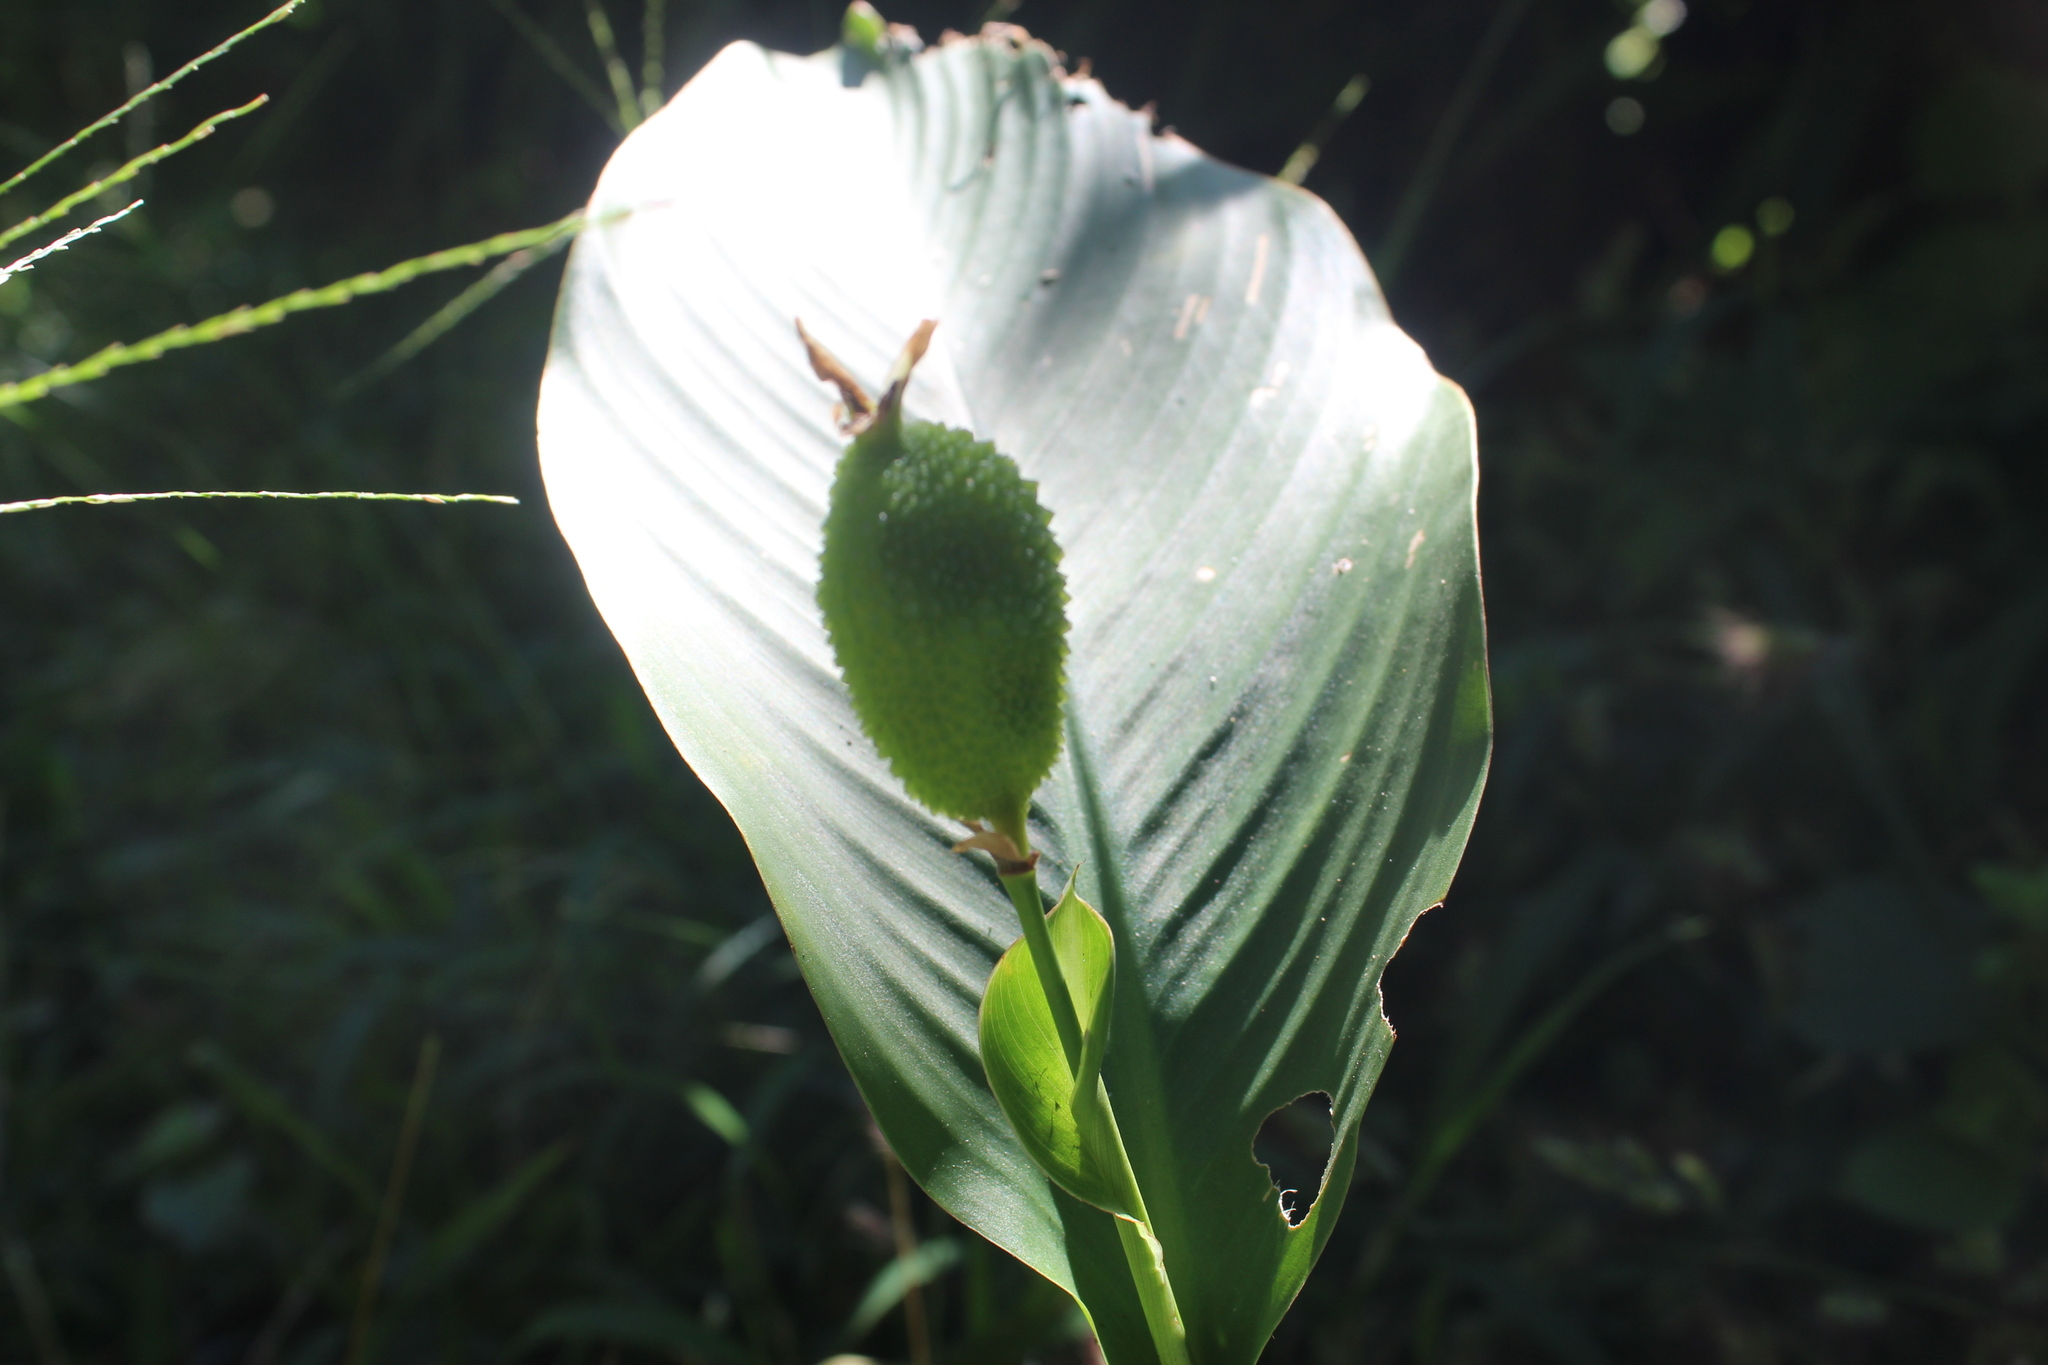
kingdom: Plantae
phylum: Tracheophyta
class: Liliopsida
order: Zingiberales
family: Cannaceae
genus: Canna
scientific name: Canna indica
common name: Indian shot
